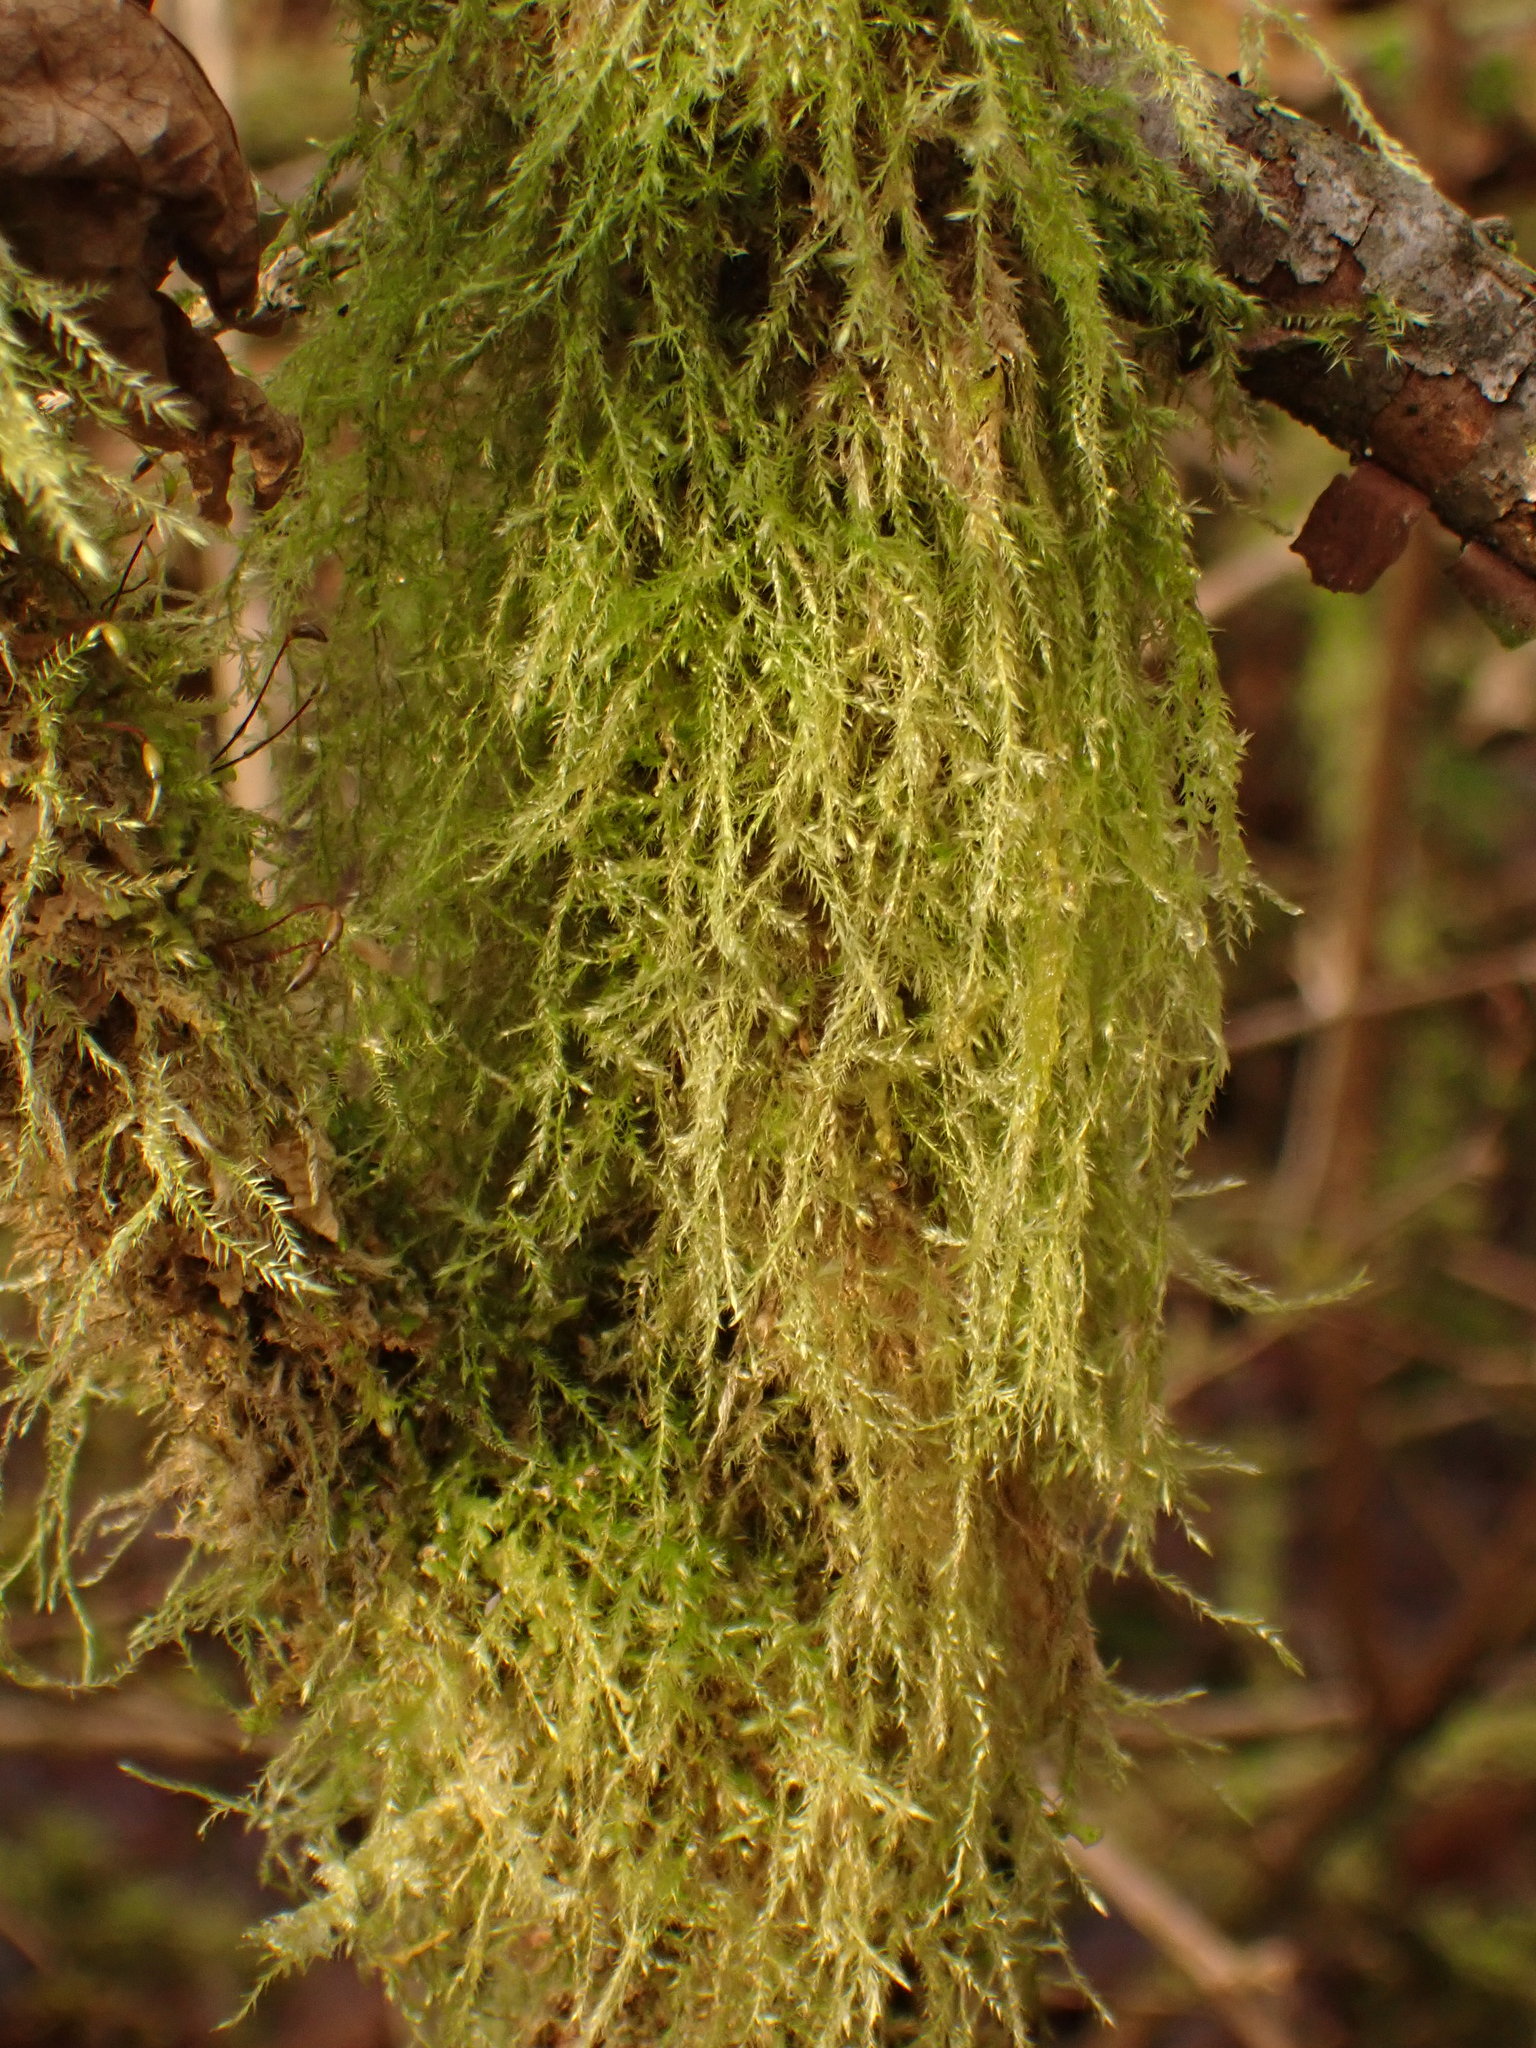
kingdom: Plantae
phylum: Bryophyta
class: Bryopsida
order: Hypnales
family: Lembophyllaceae
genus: Pseudisothecium
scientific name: Pseudisothecium stoloniferum
